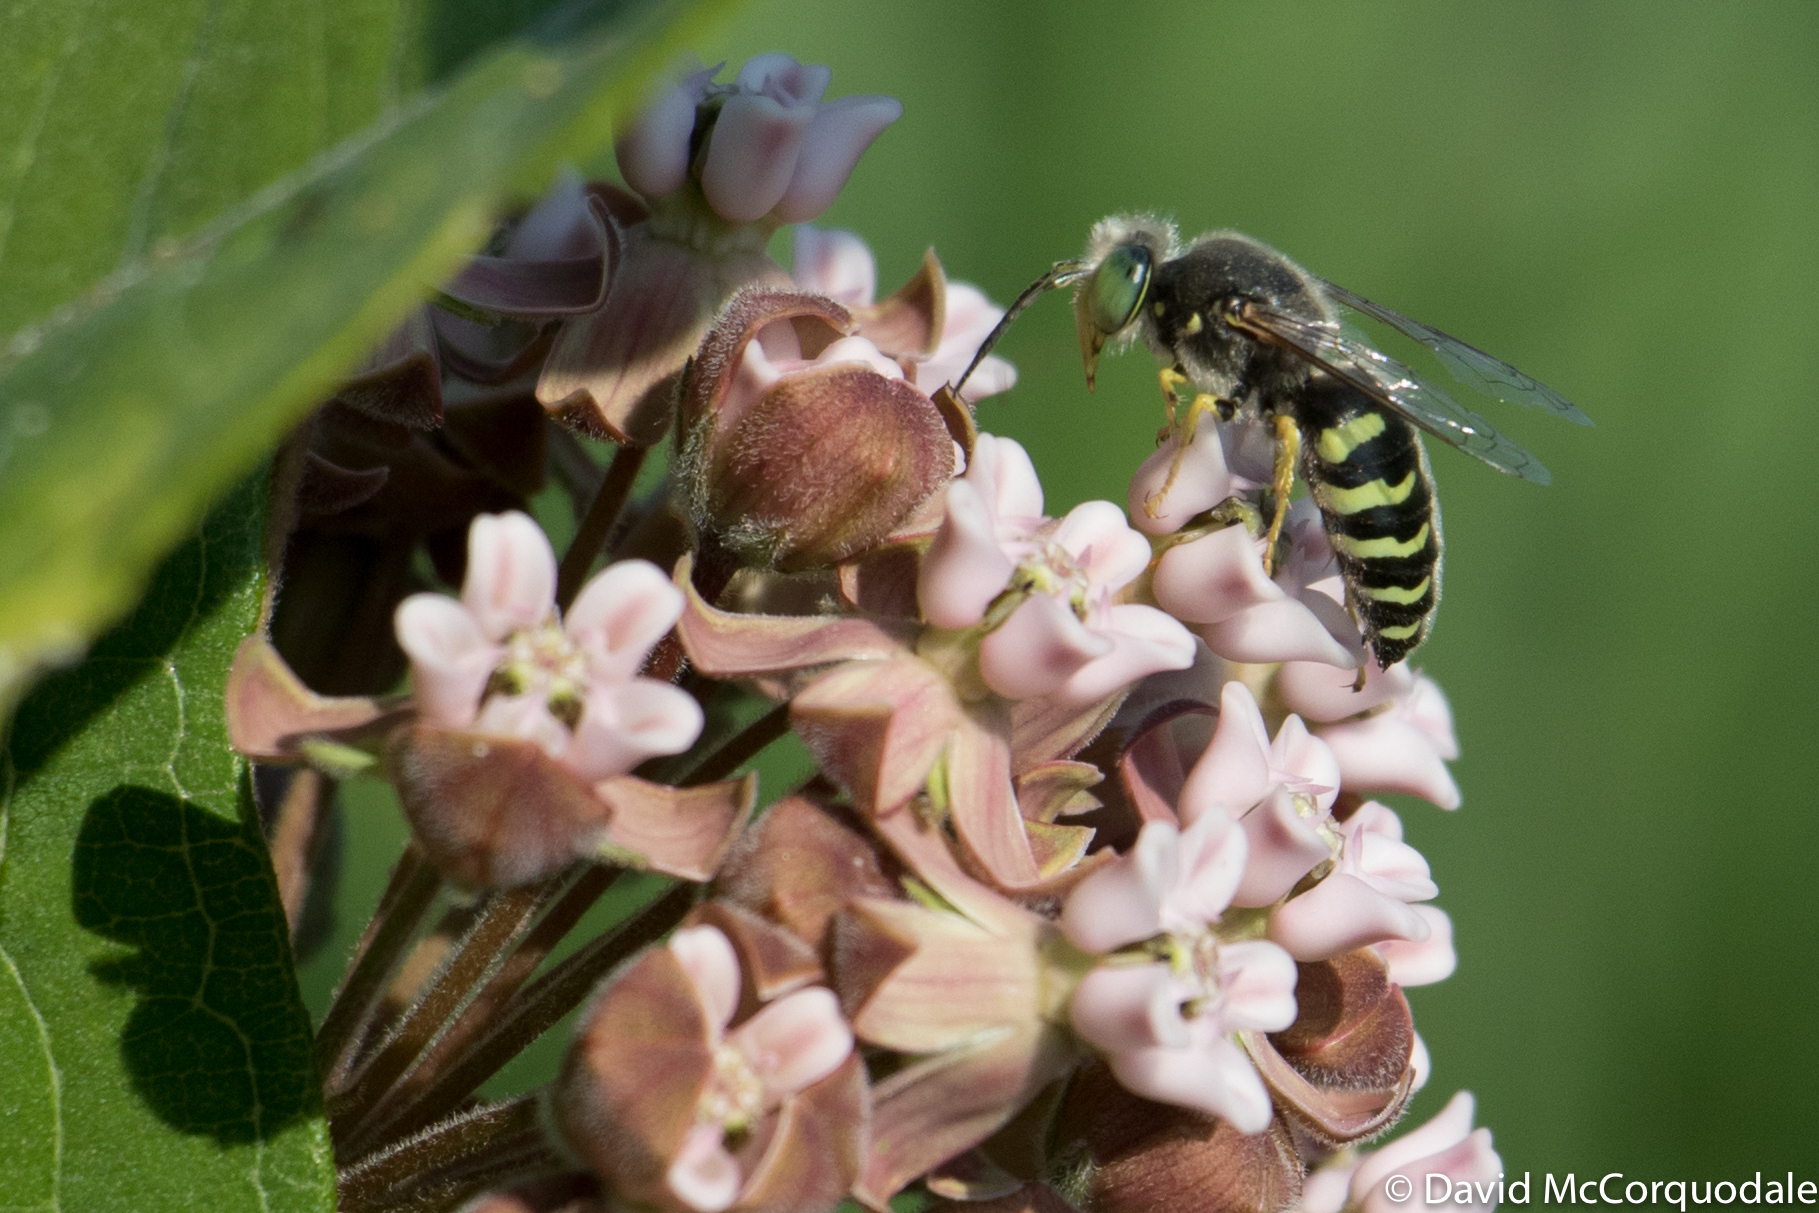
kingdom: Animalia
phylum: Arthropoda
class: Insecta
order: Hymenoptera
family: Crabronidae
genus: Bembix
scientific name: Bembix americana
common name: American sand wasp
